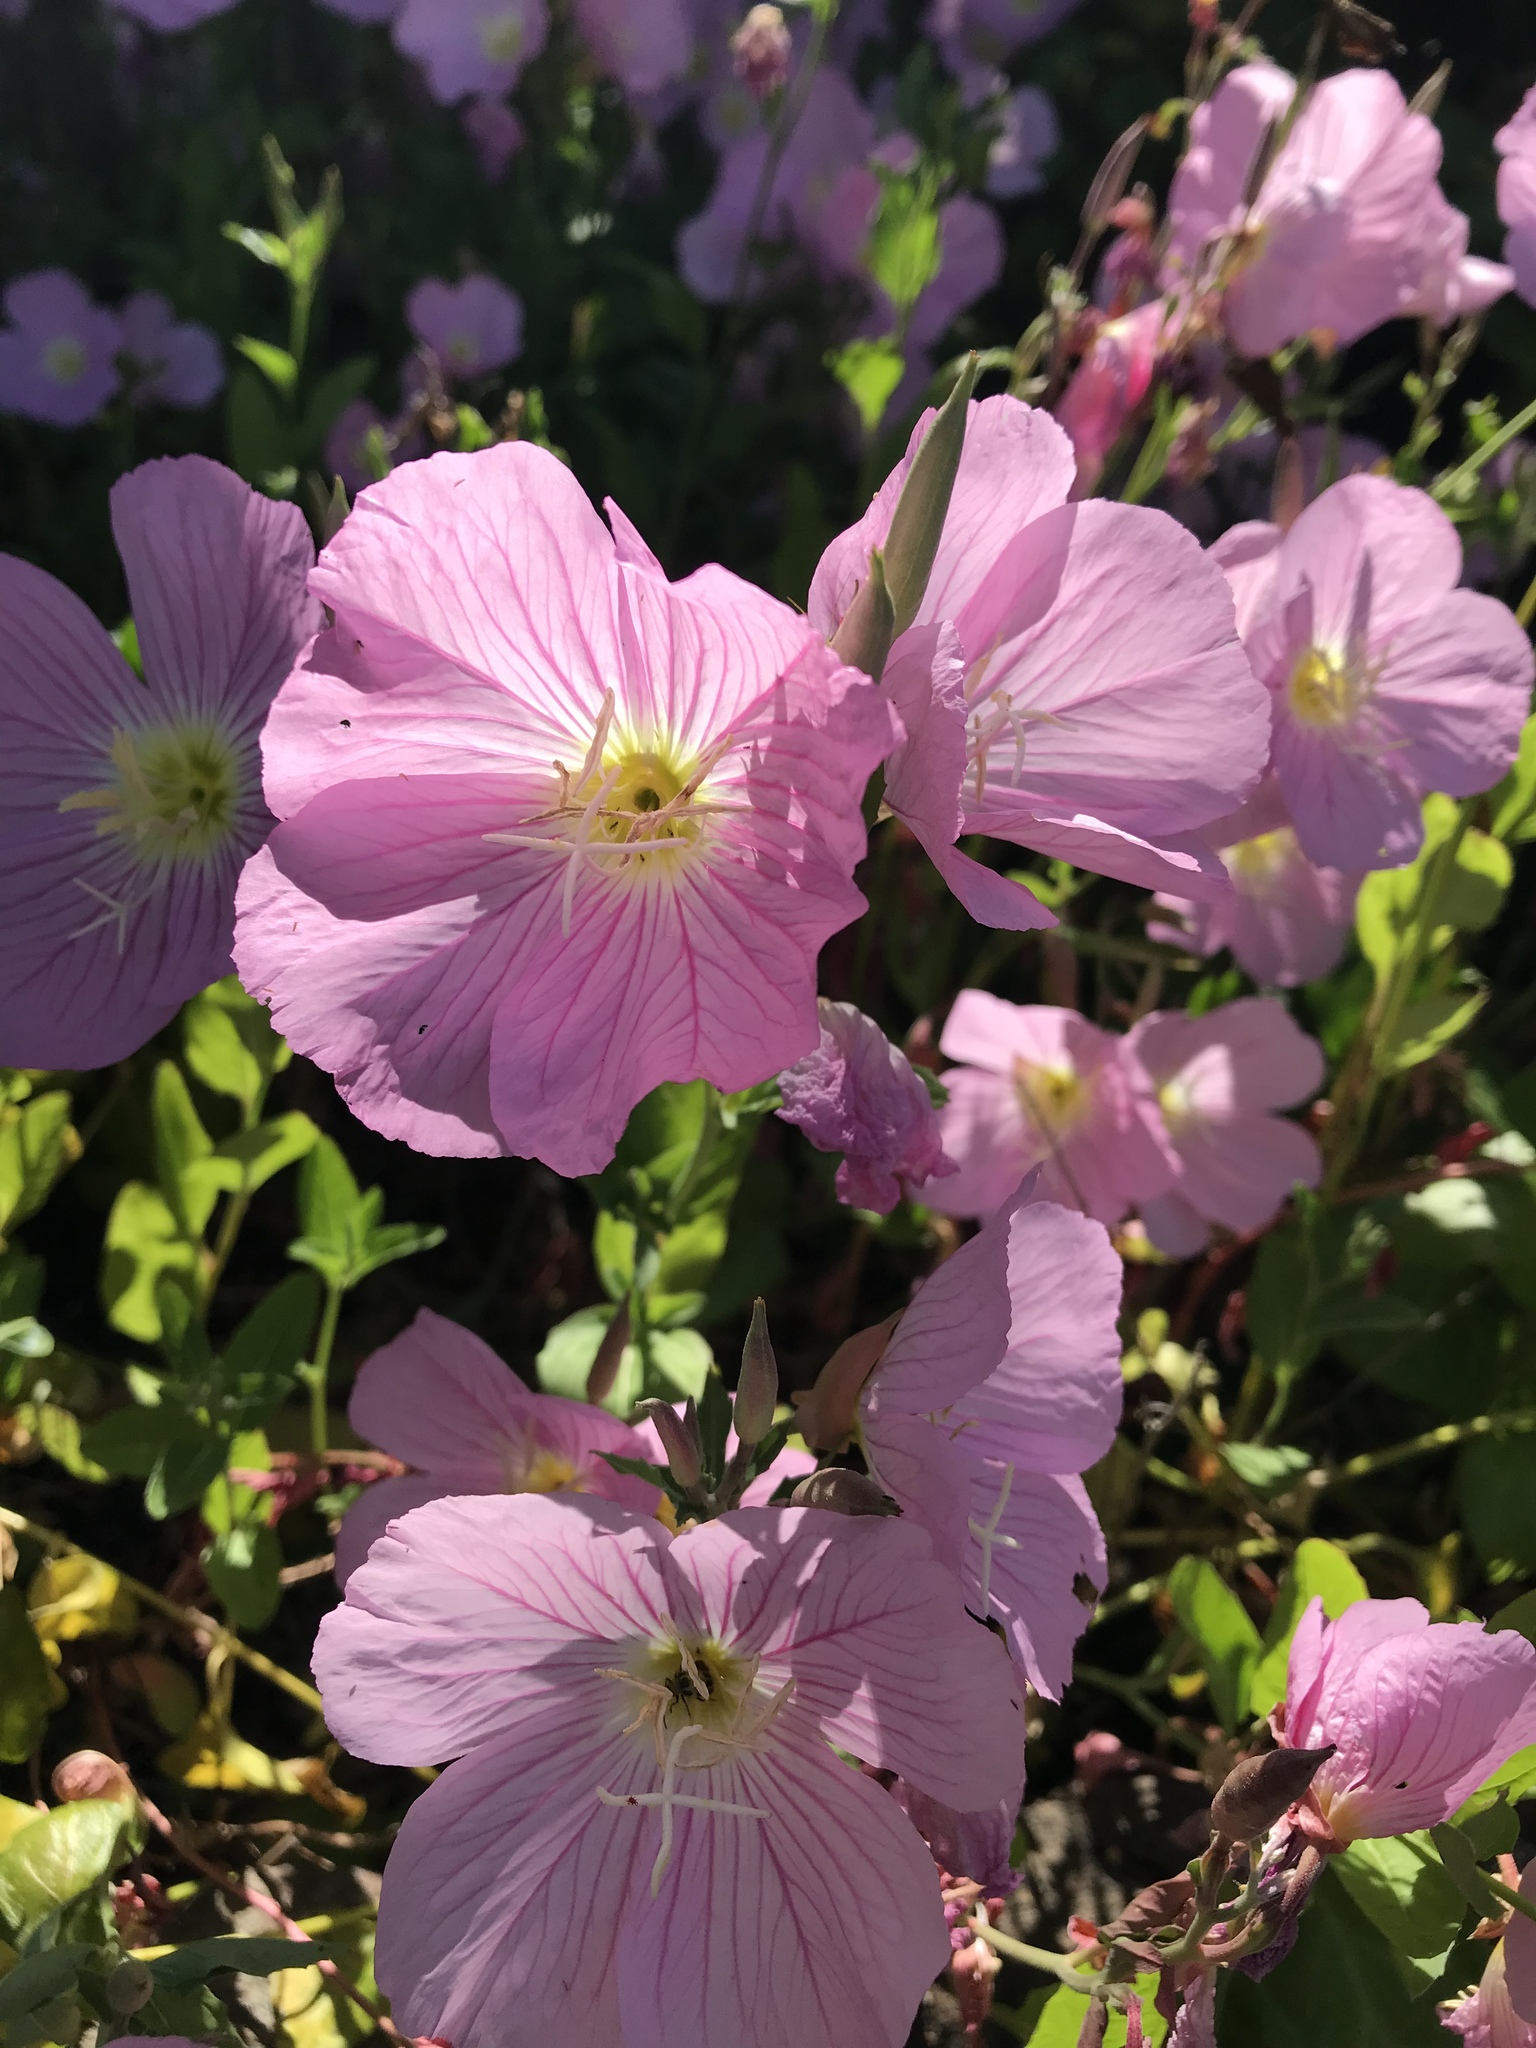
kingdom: Plantae
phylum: Tracheophyta
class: Magnoliopsida
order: Myrtales
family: Onagraceae
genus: Oenothera
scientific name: Oenothera speciosa
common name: White evening-primrose
